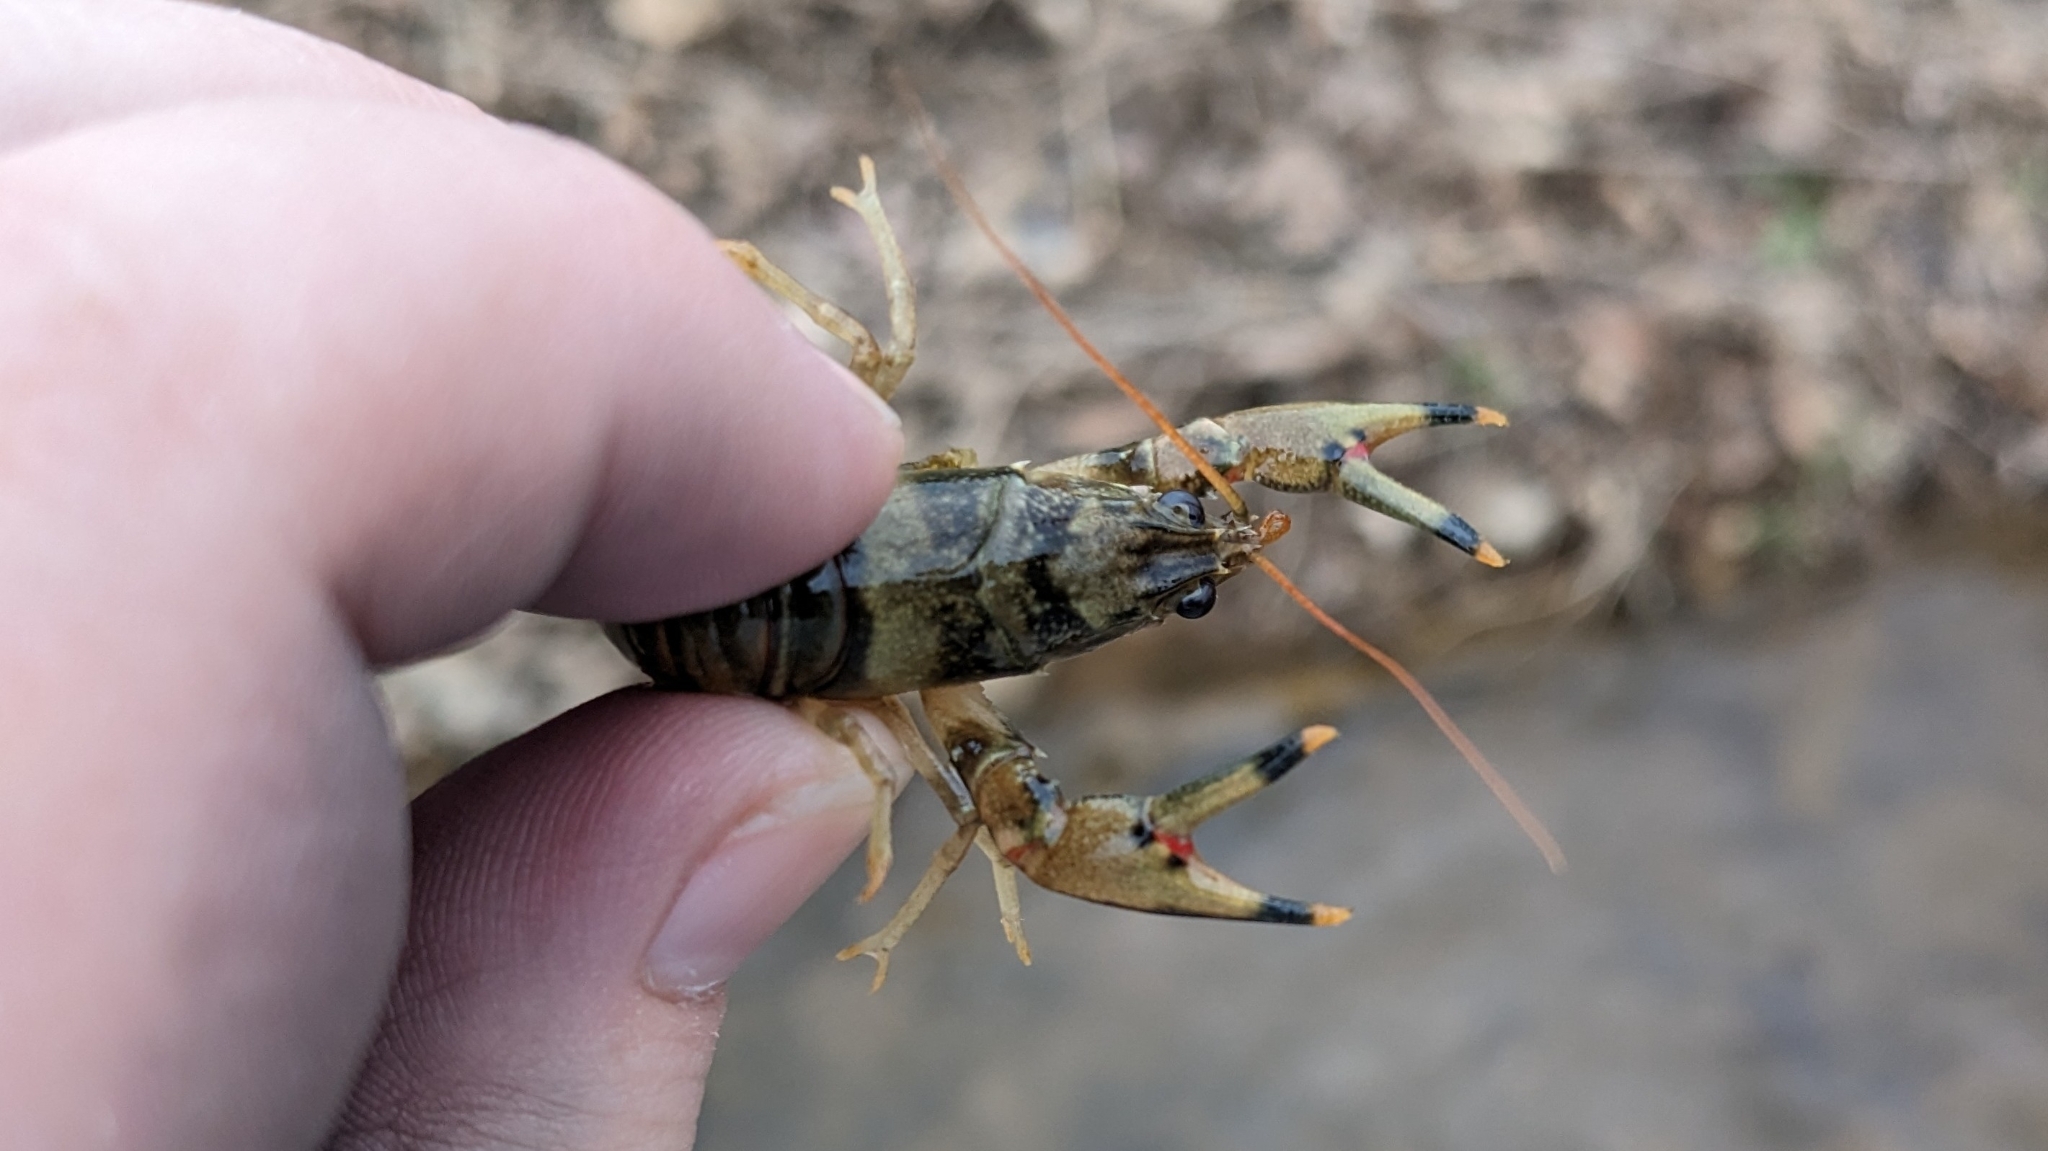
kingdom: Animalia
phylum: Arthropoda
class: Malacostraca
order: Decapoda
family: Cambaridae
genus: Faxonius
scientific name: Faxonius placidus
